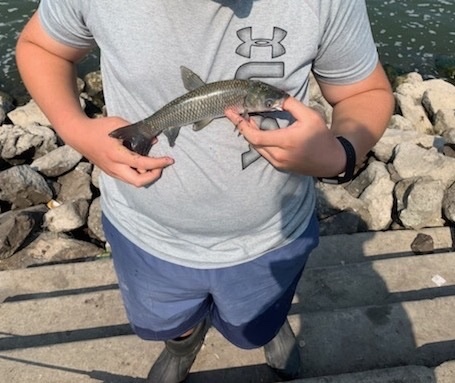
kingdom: Animalia
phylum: Chordata
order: Cypriniformes
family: Cyprinidae
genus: Ctenopharyngodon
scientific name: Ctenopharyngodon idella
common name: Grass carp
